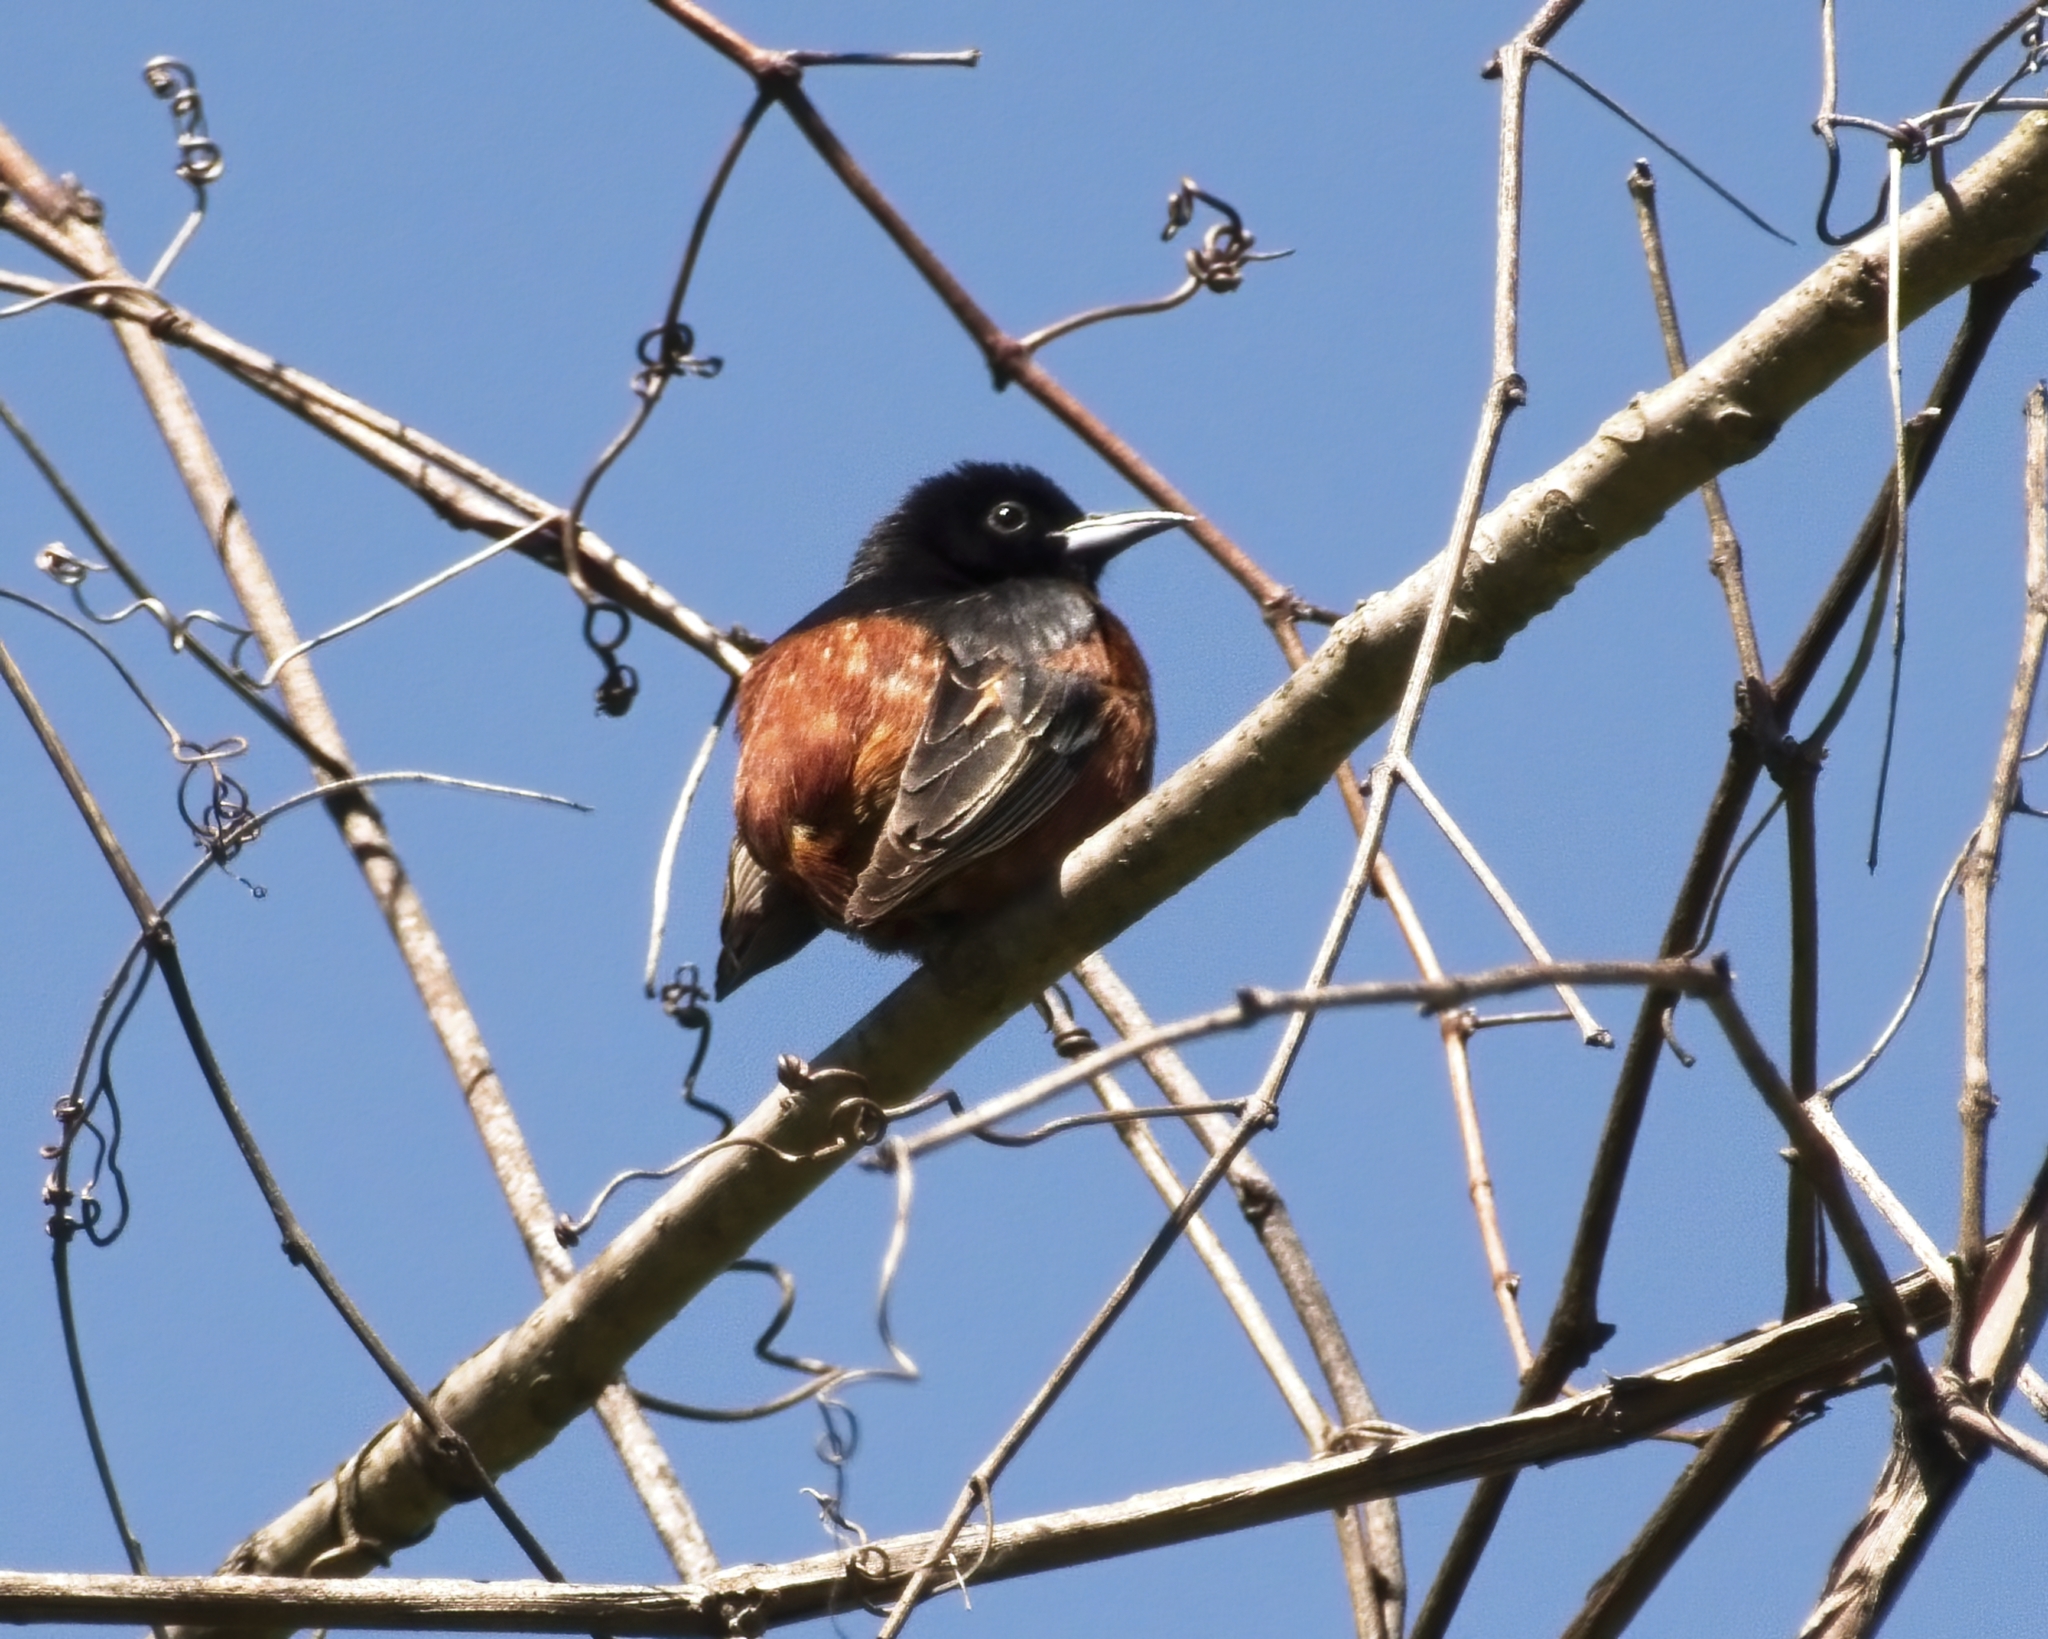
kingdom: Animalia
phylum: Chordata
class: Aves
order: Passeriformes
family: Icteridae
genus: Icterus
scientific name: Icterus spurius
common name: Orchard oriole
